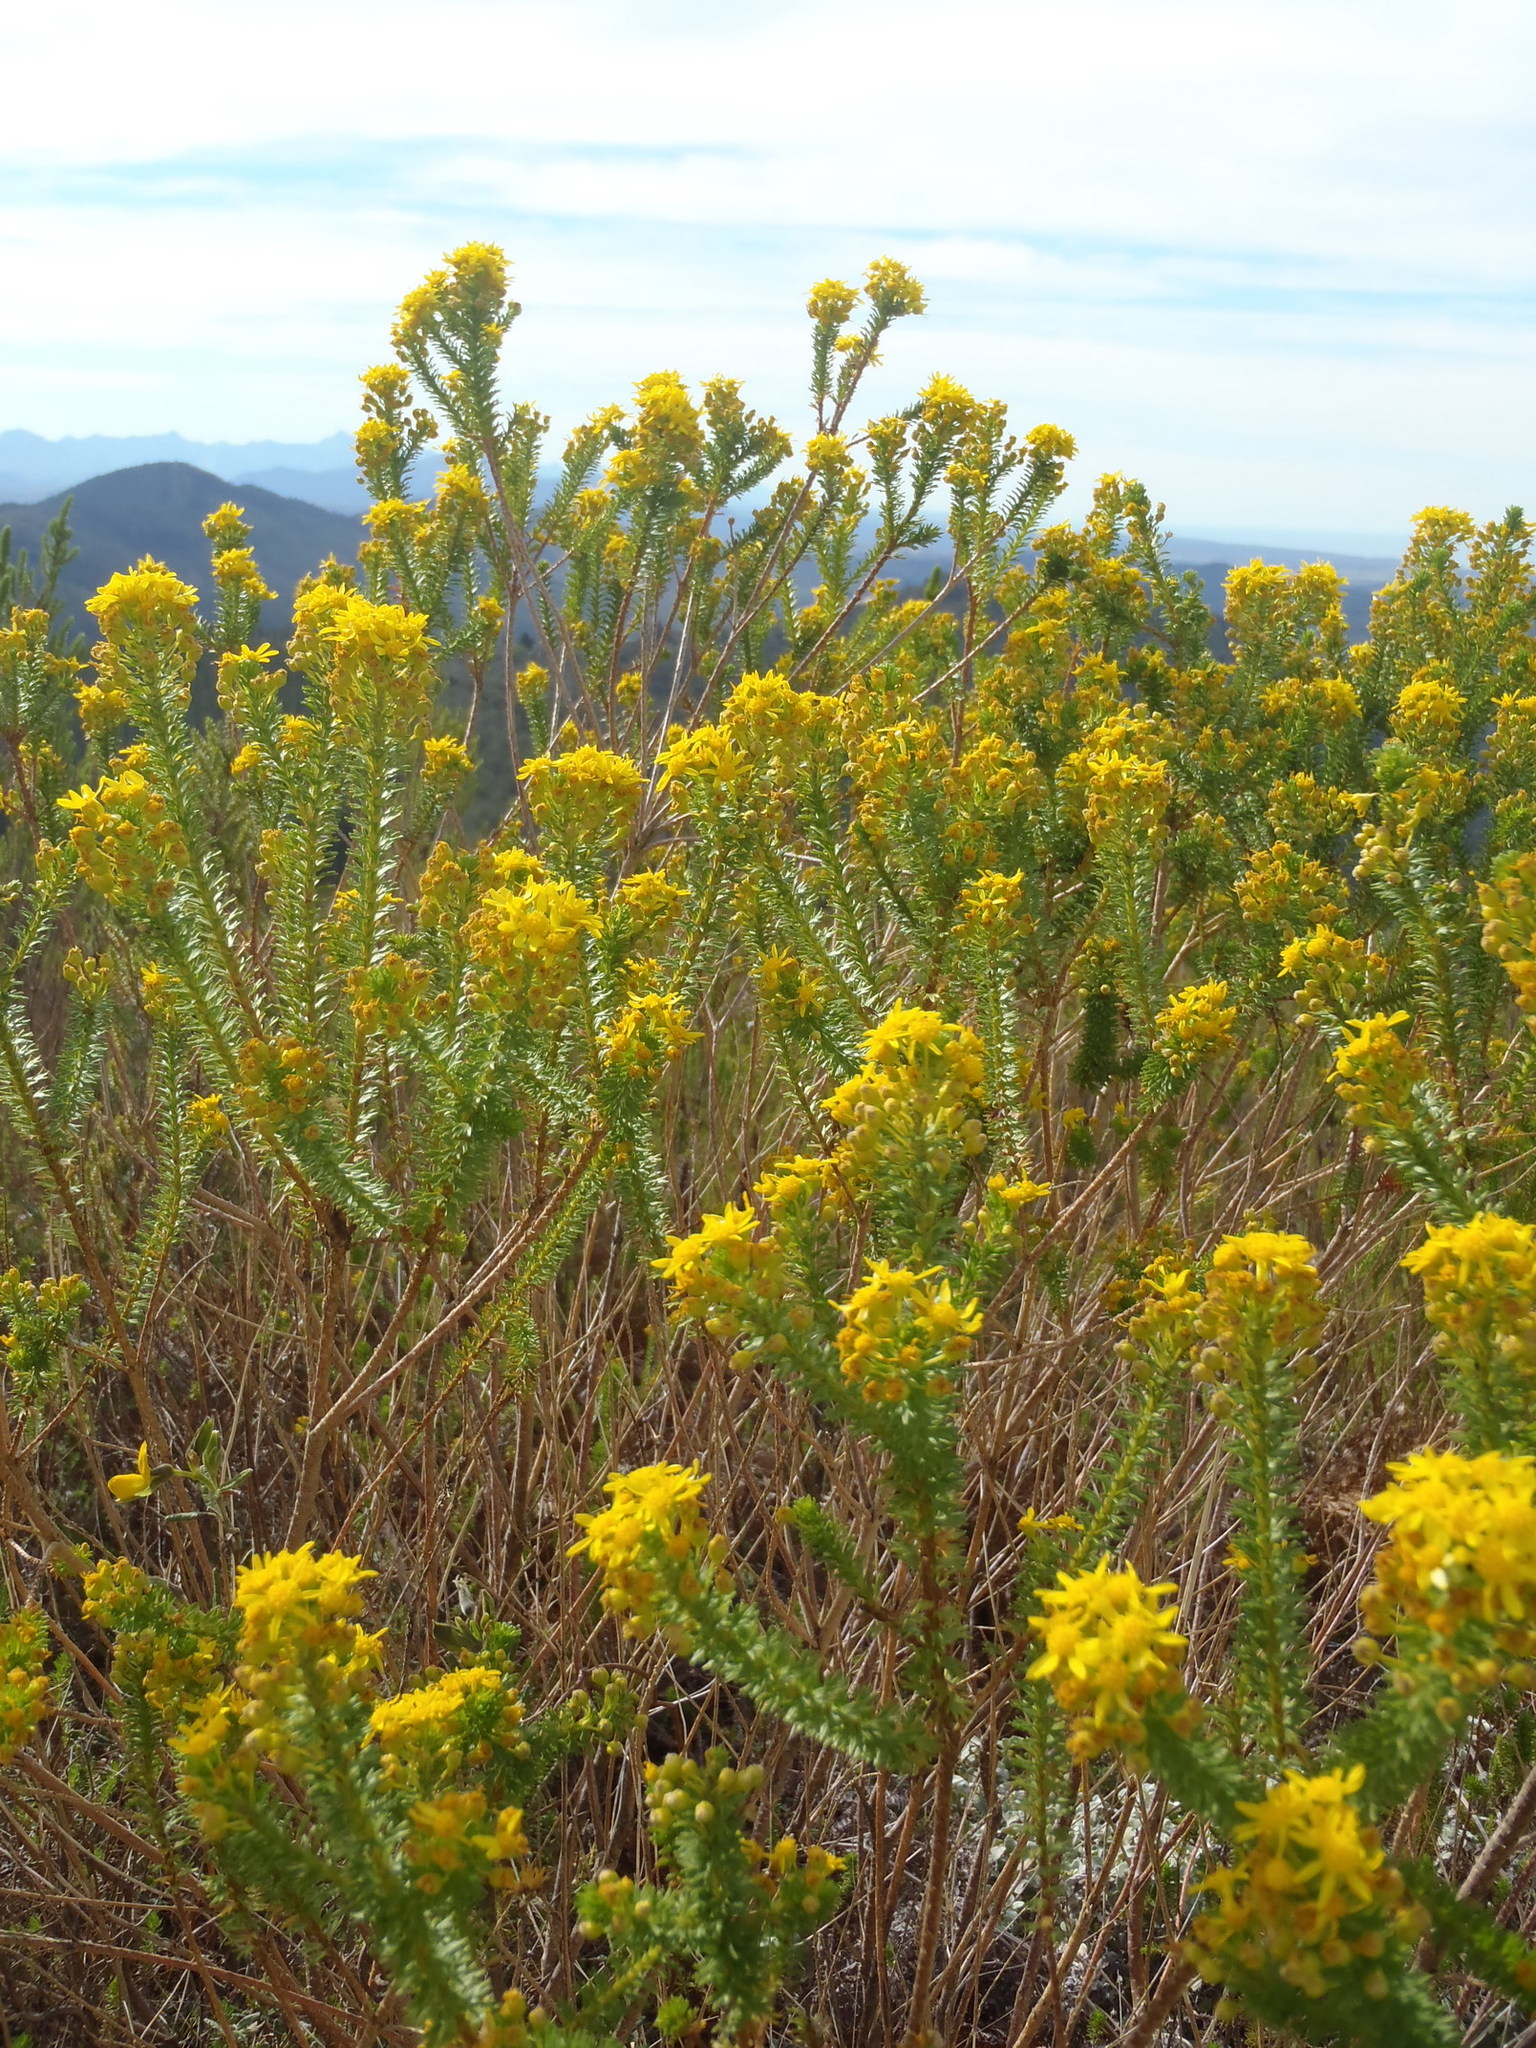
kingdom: Plantae
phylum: Tracheophyta
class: Magnoliopsida
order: Asterales
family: Asteraceae
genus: Euryops
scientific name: Euryops virgineus
